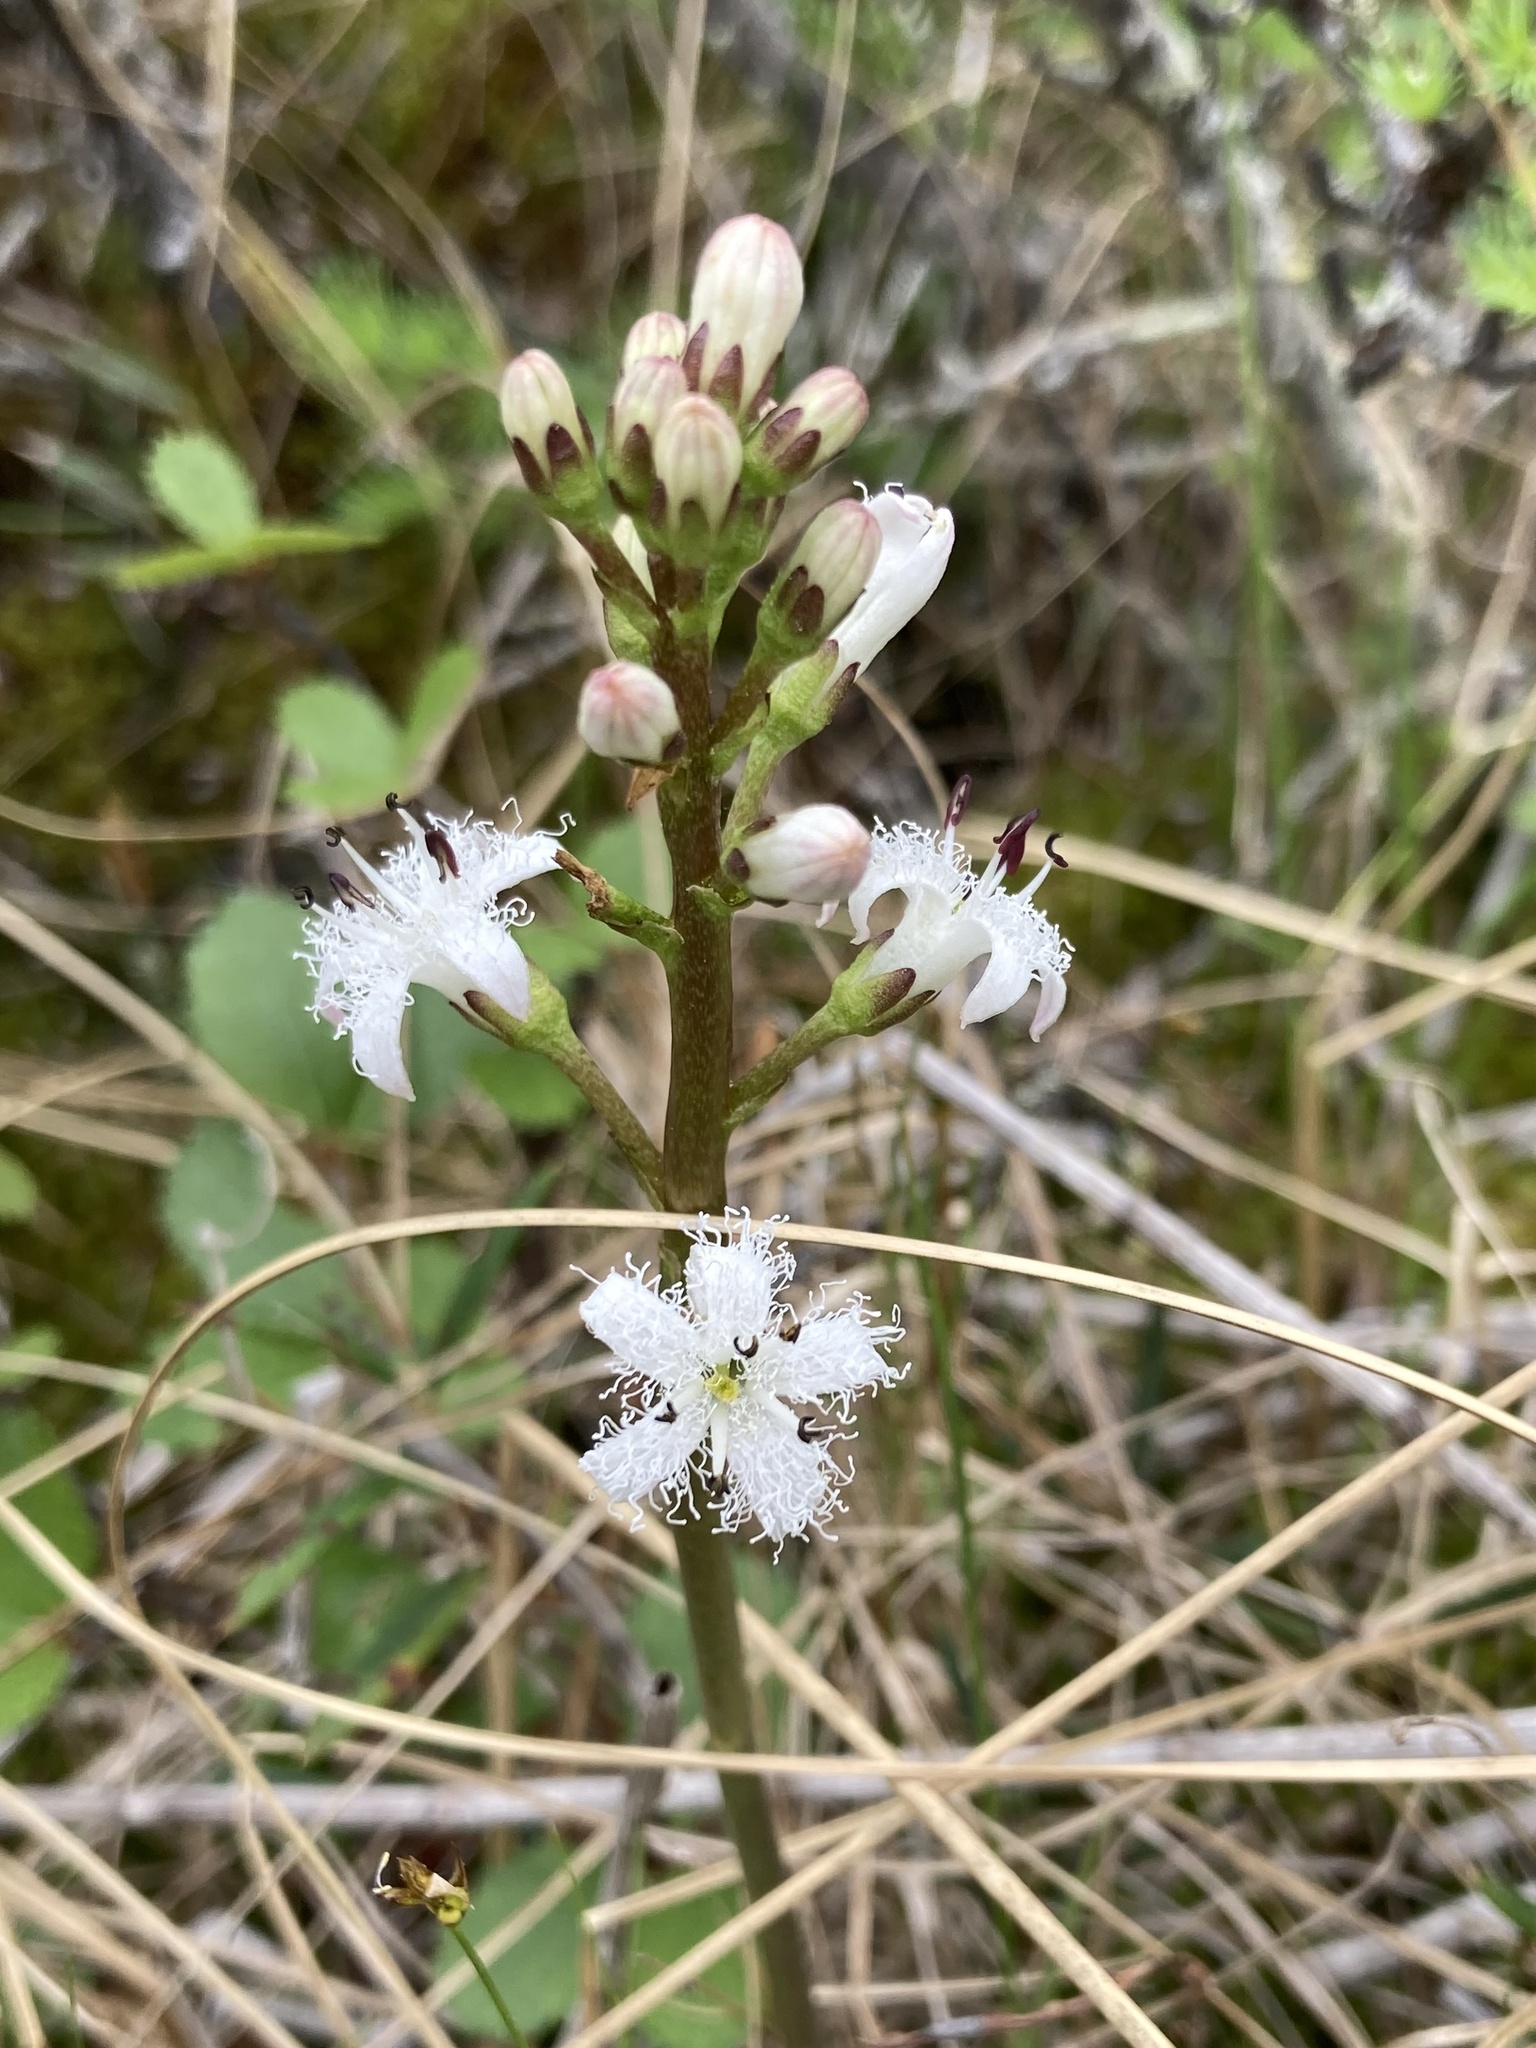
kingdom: Plantae
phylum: Tracheophyta
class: Magnoliopsida
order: Asterales
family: Menyanthaceae
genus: Menyanthes
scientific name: Menyanthes trifoliata
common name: Bogbean
